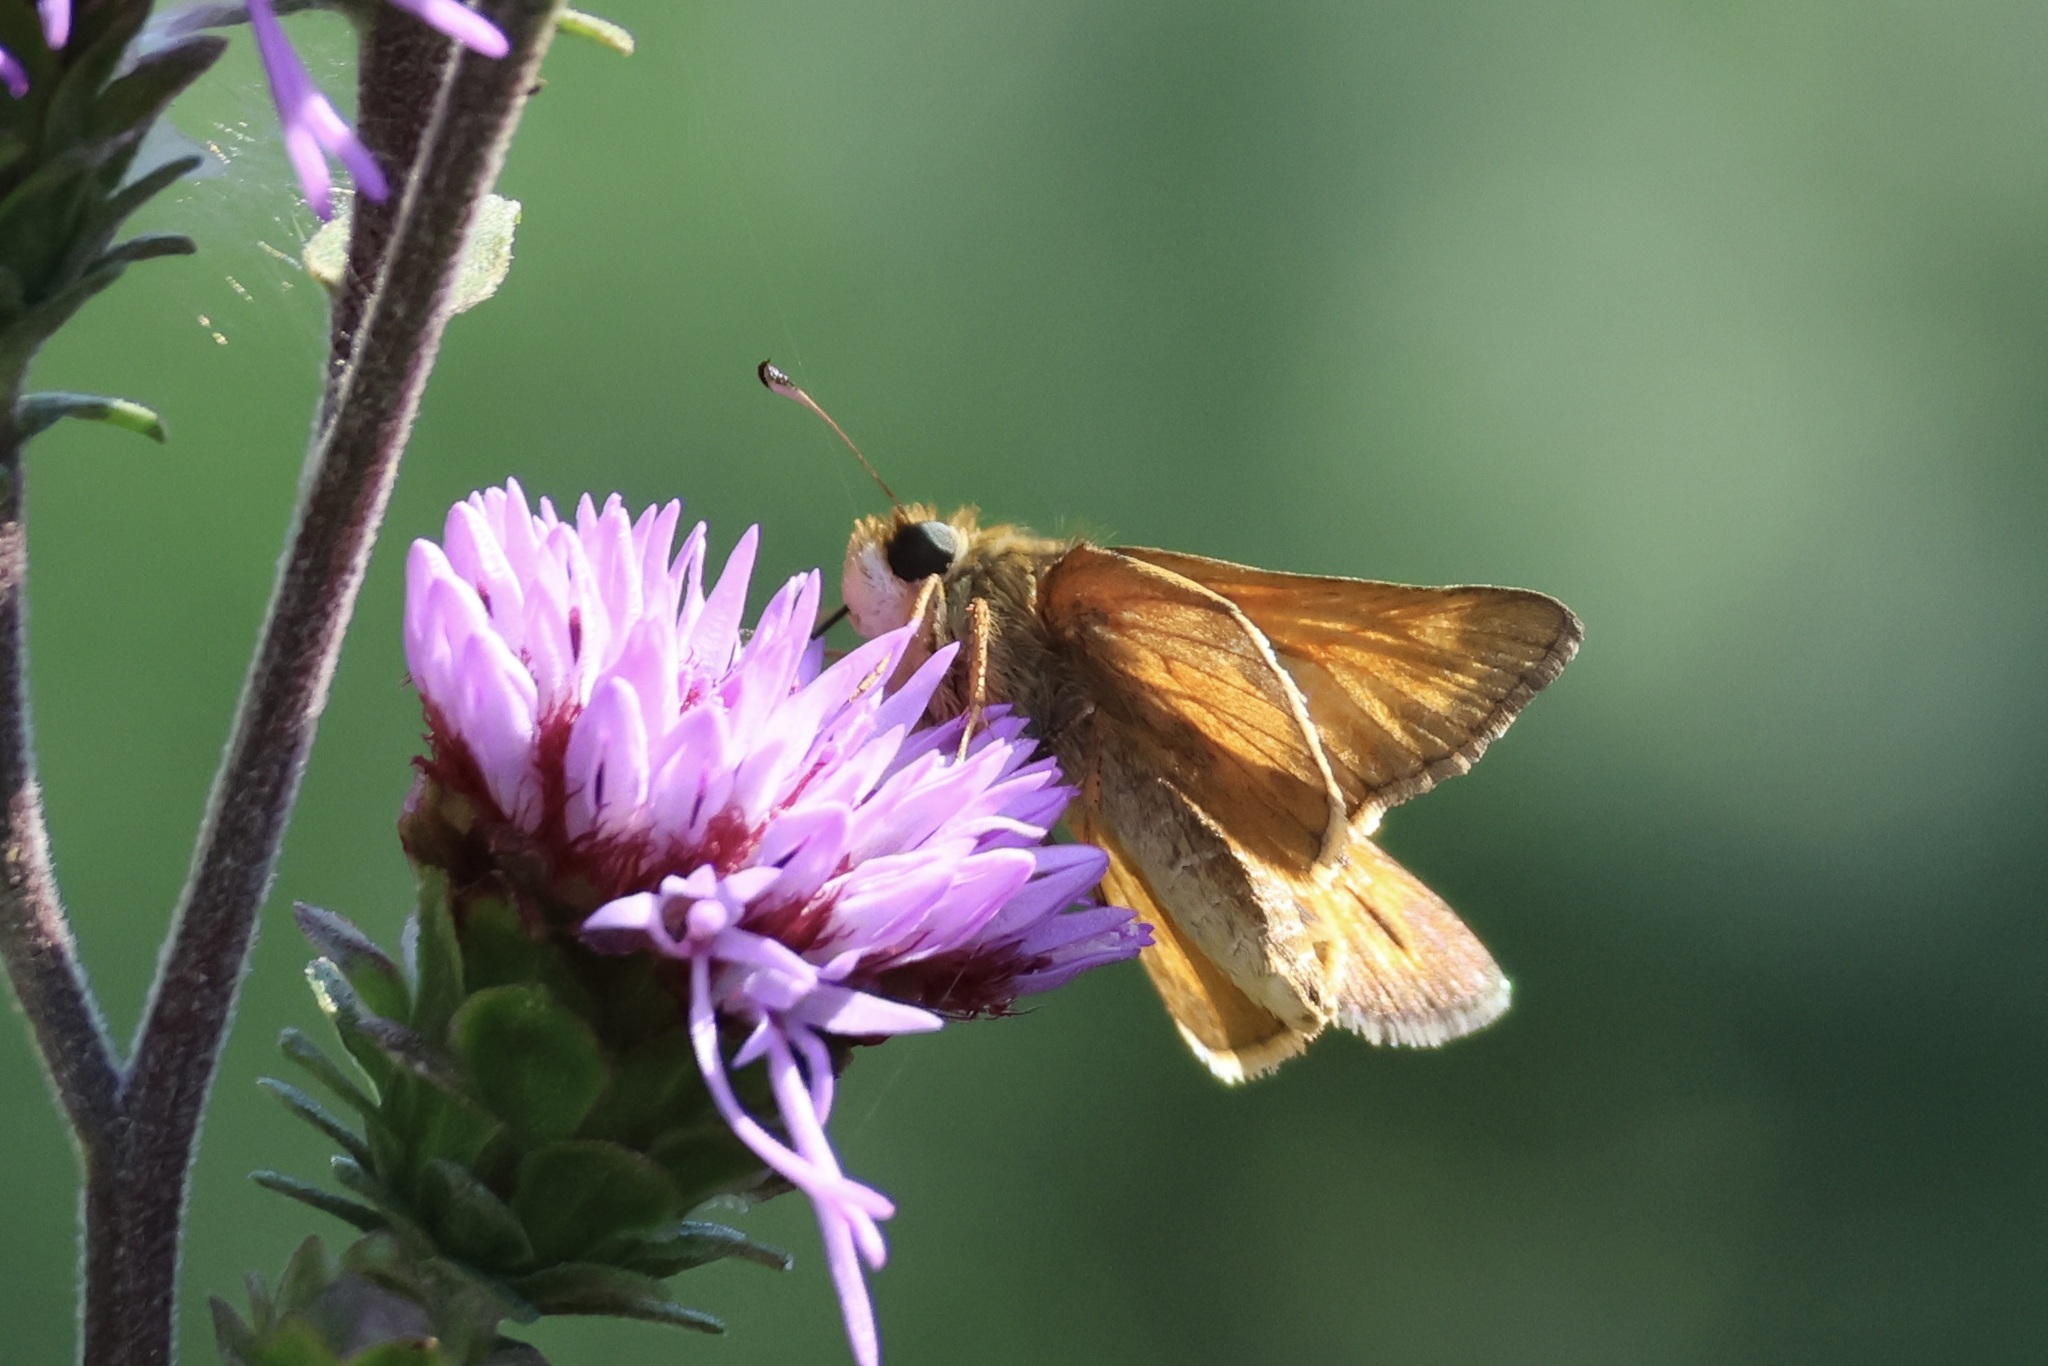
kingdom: Animalia
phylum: Arthropoda
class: Insecta
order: Lepidoptera
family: Hesperiidae
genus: Atalopedes
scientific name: Atalopedes
